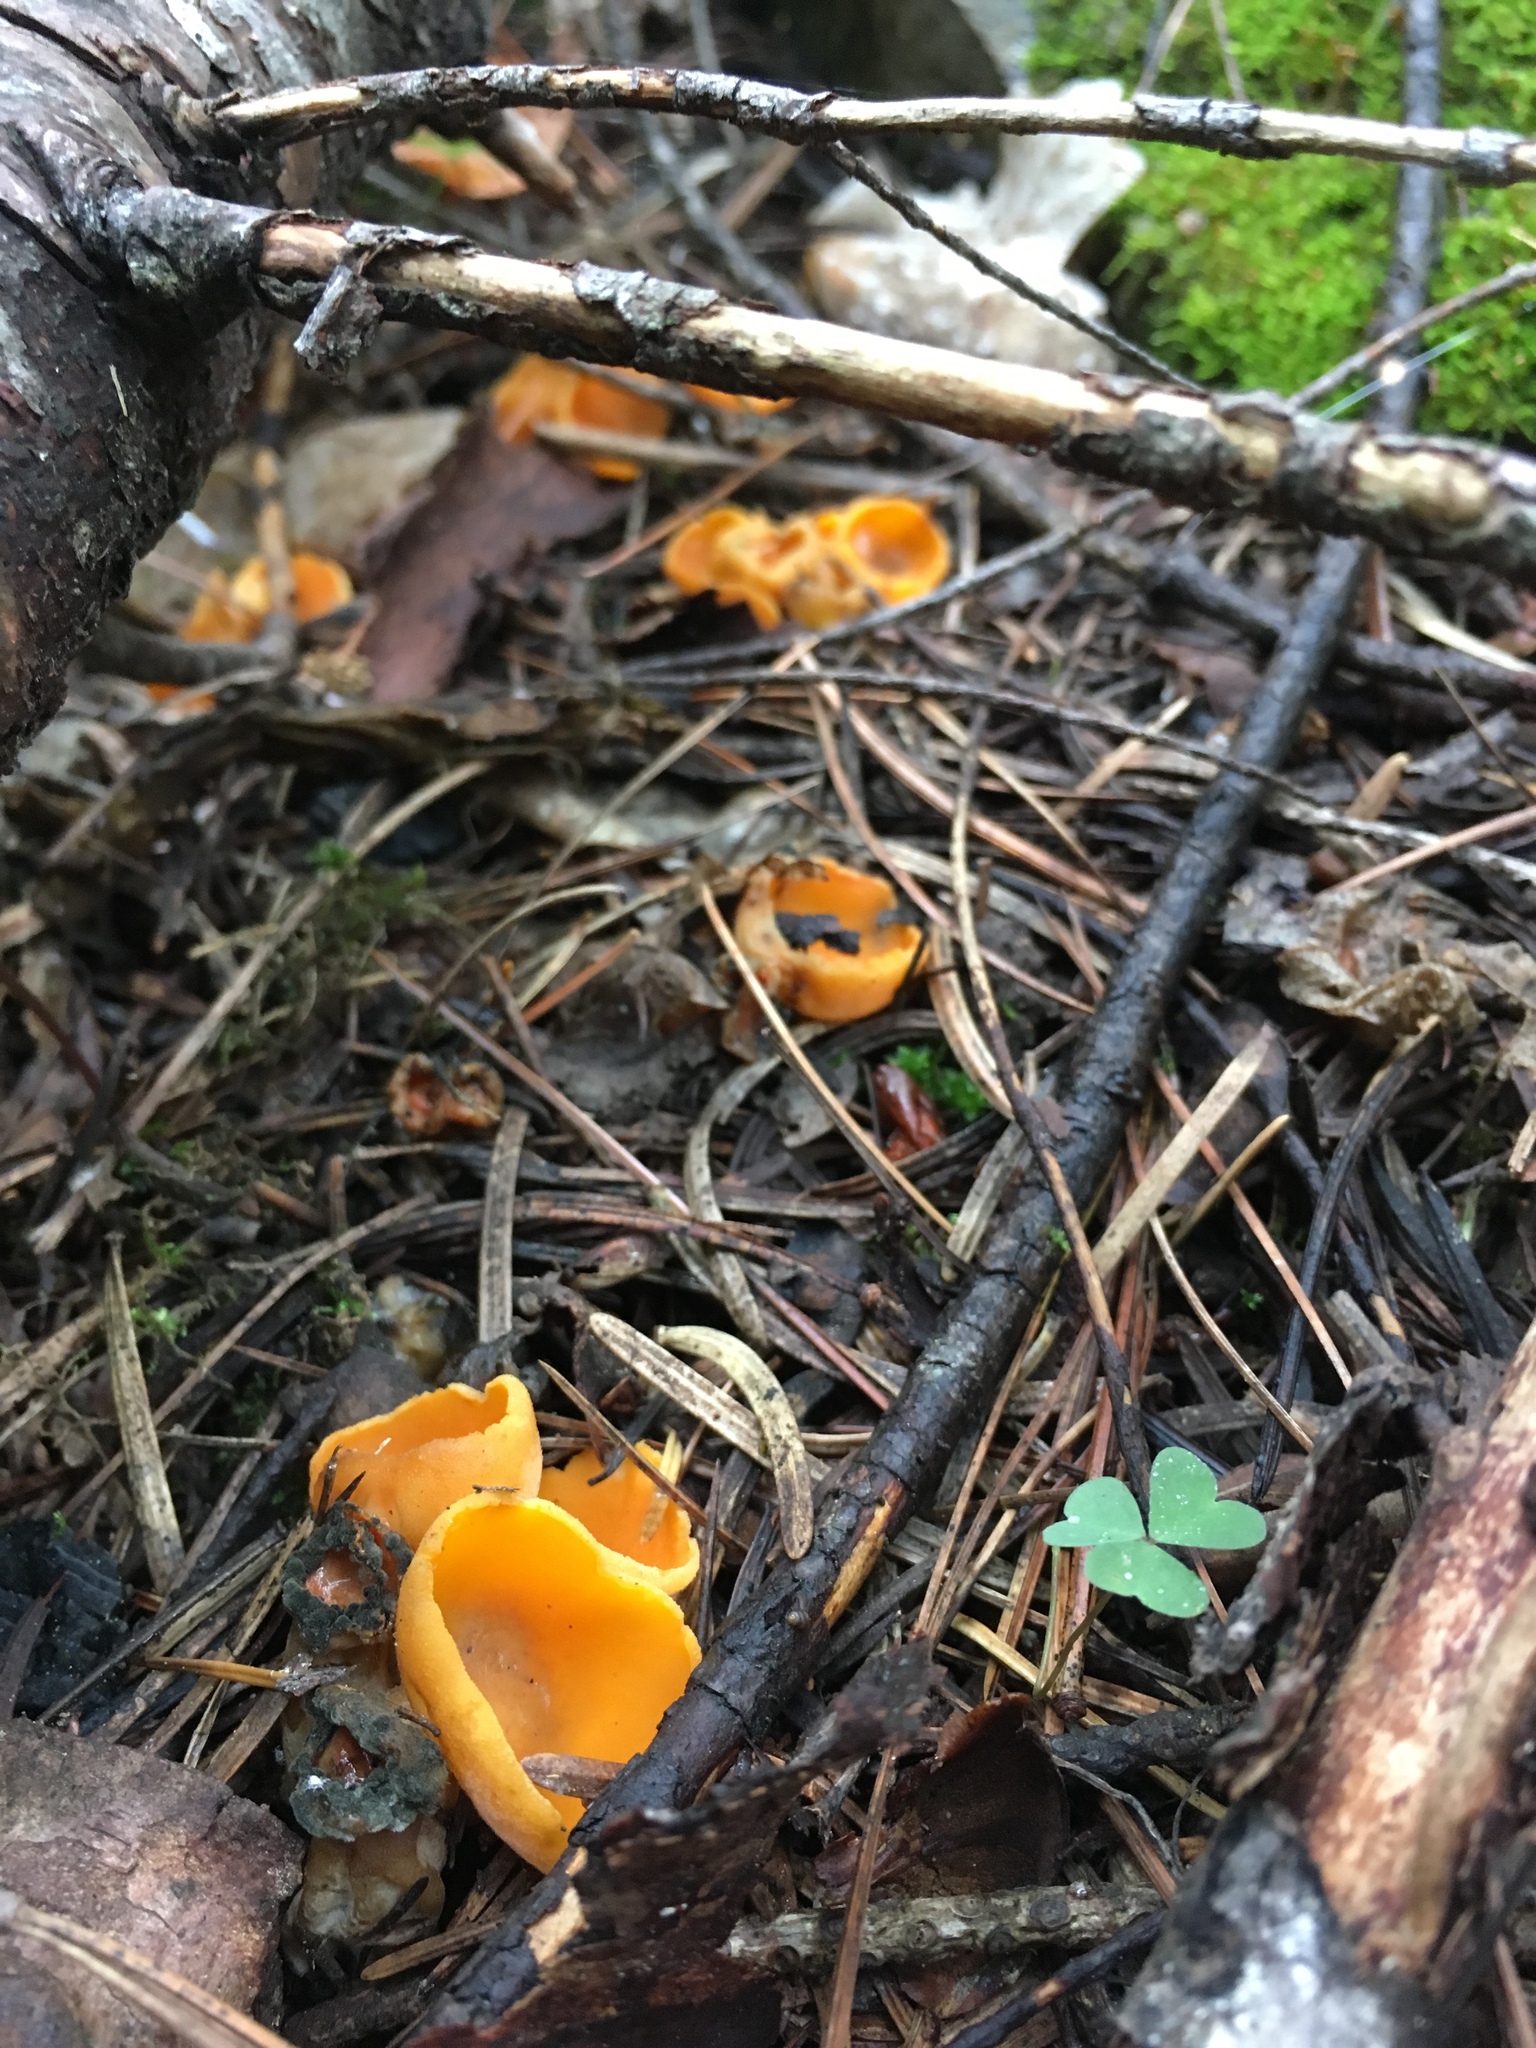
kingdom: Fungi
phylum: Ascomycota
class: Pezizomycetes
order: Pezizales
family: Pyronemataceae
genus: Sowerbyella
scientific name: Sowerbyella rhenana
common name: Stalked orange peel fungus
